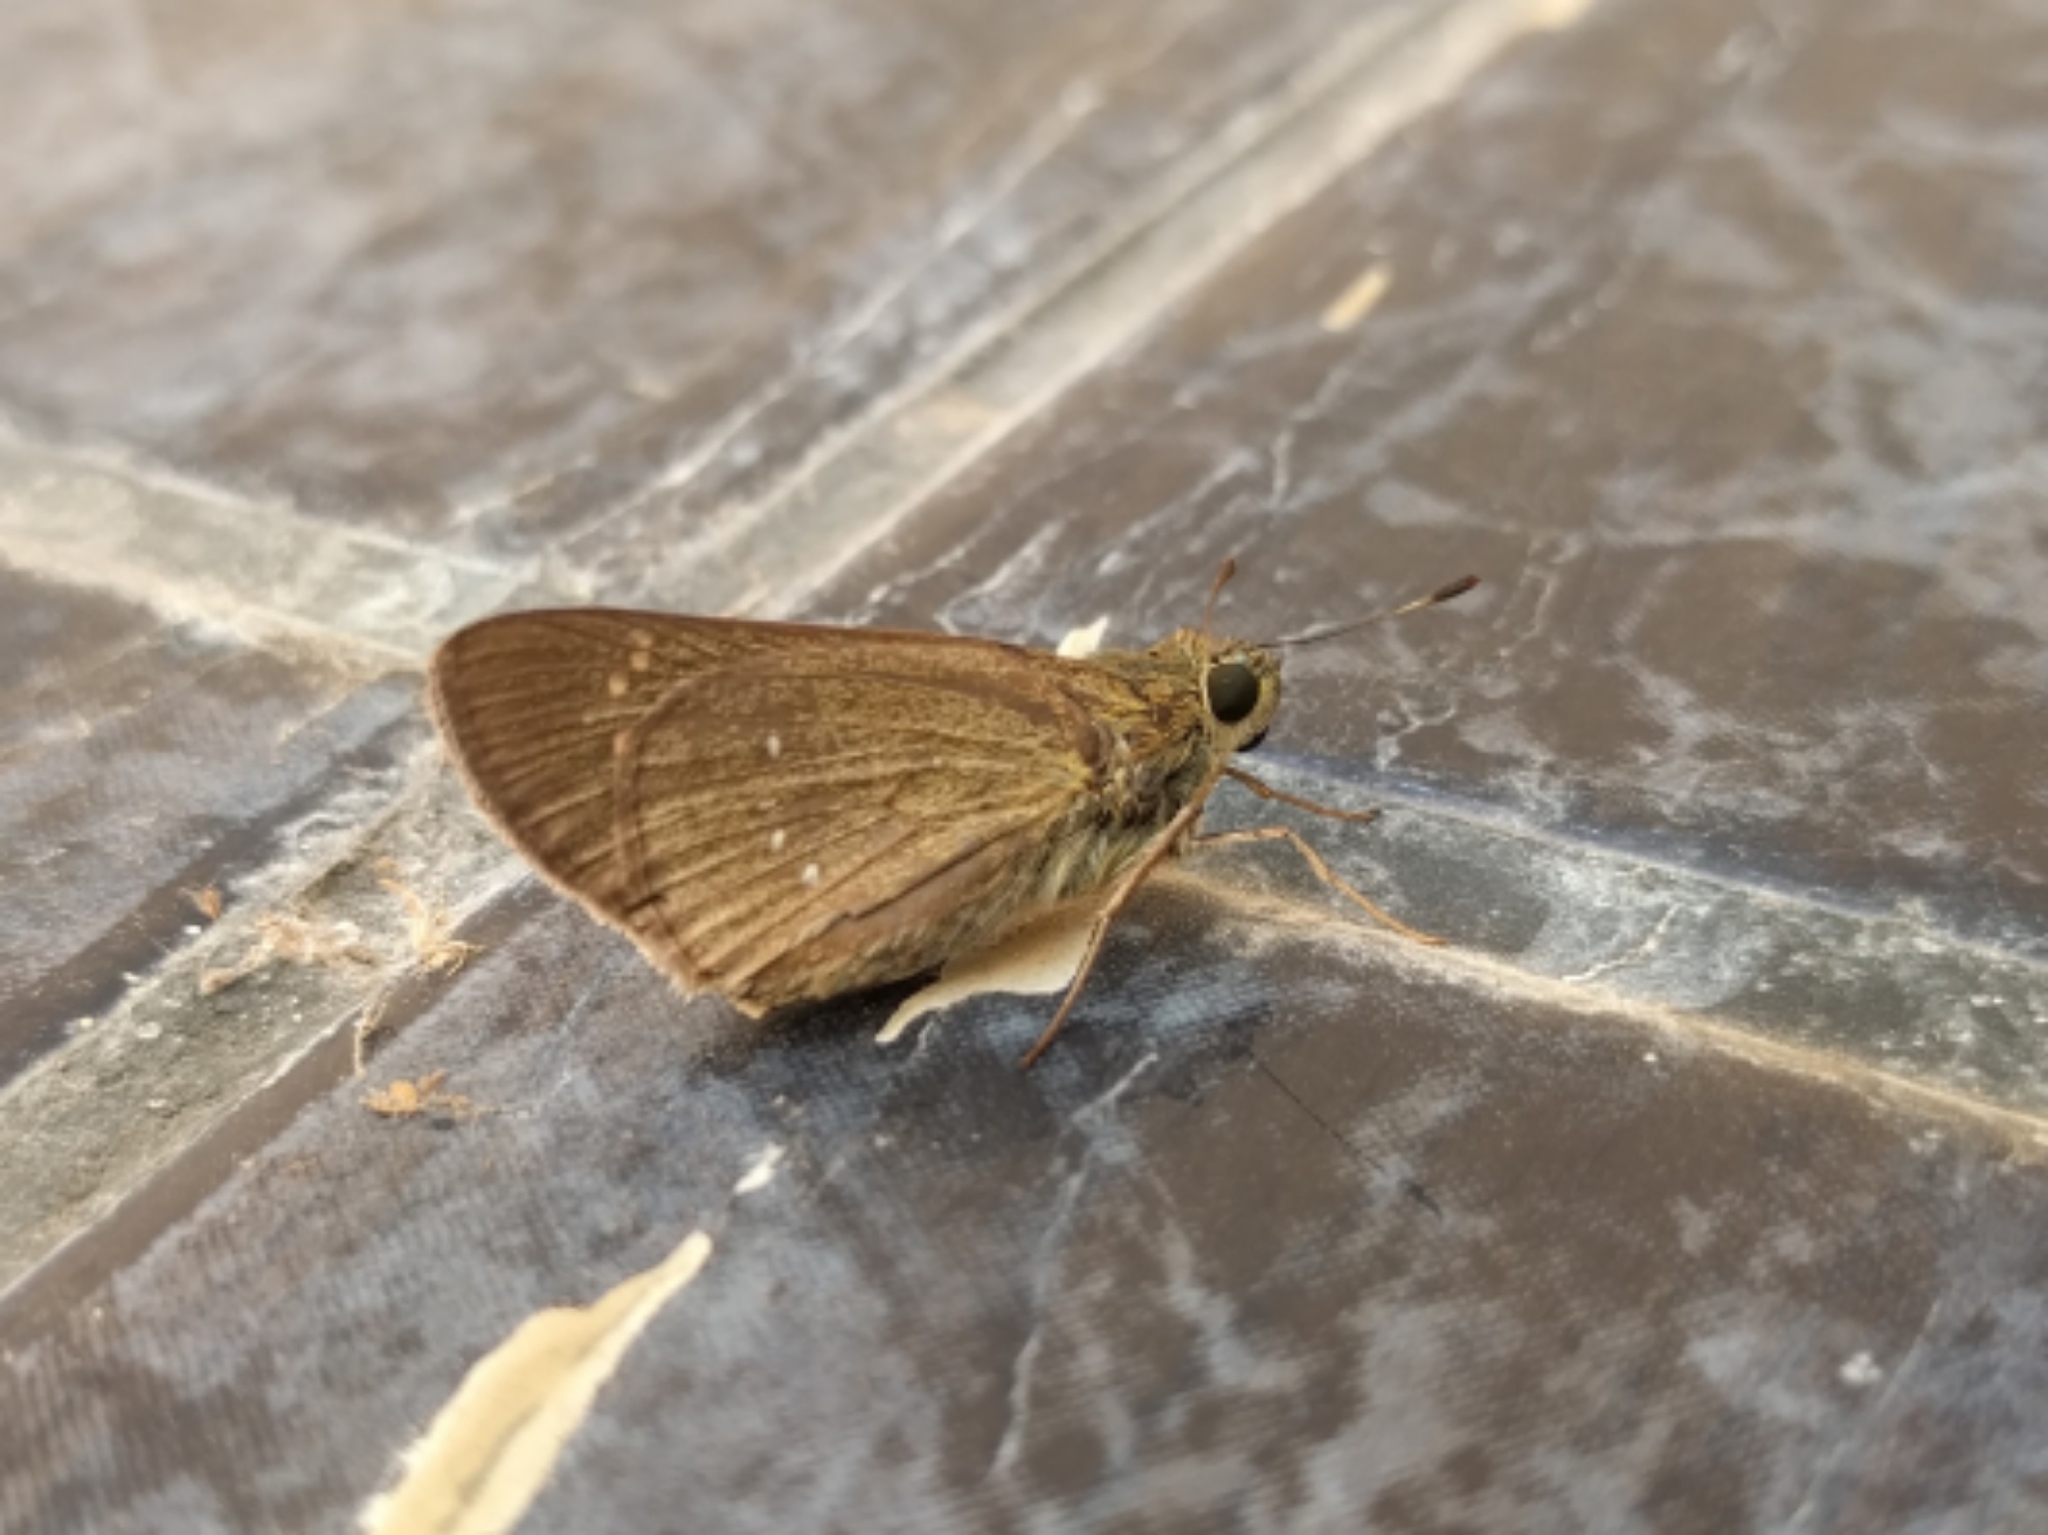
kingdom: Animalia
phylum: Arthropoda
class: Insecta
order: Lepidoptera
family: Hesperiidae
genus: Borbo
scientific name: Borbo cinnara
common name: Formosan swift
